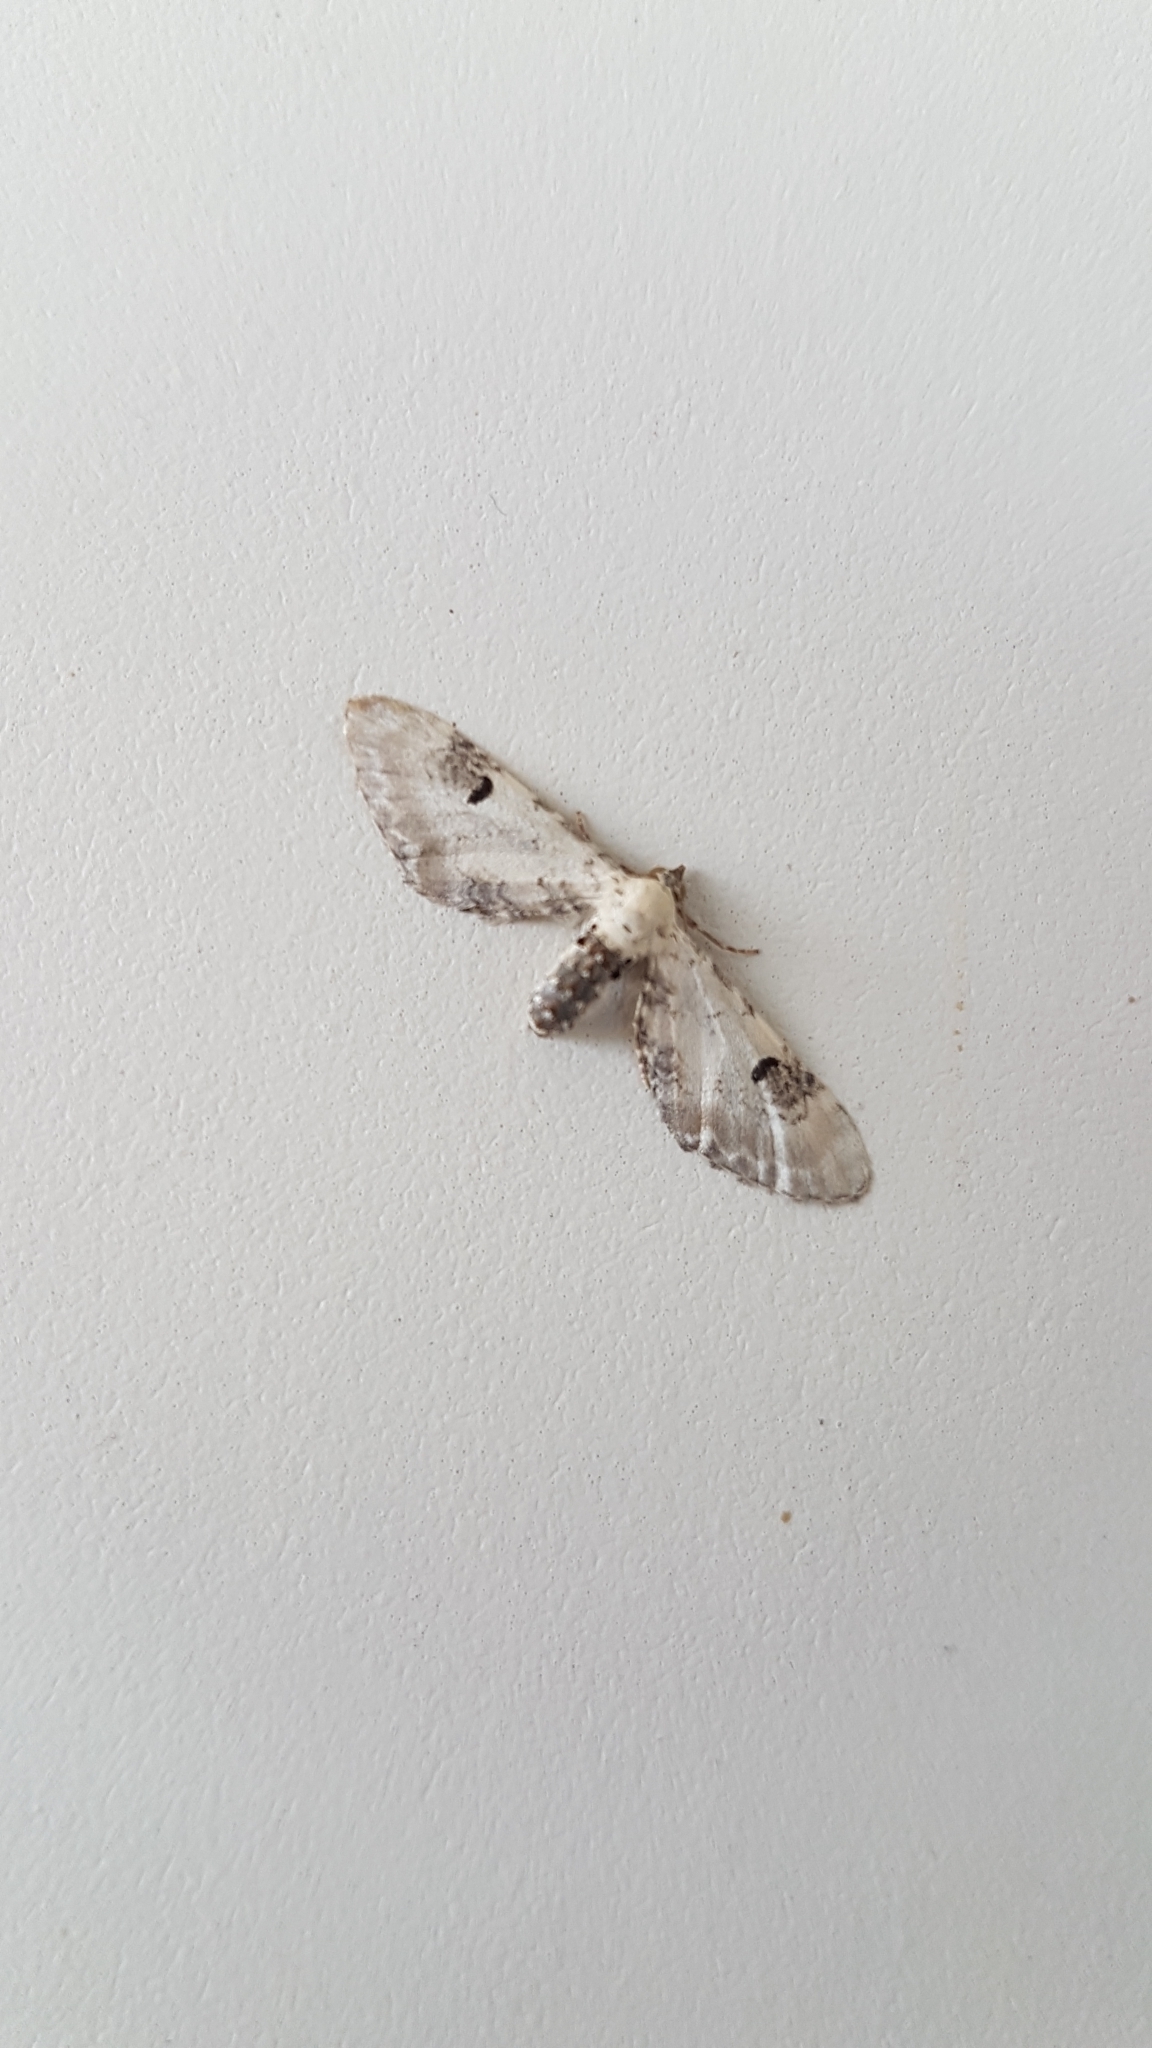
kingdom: Animalia
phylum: Arthropoda
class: Insecta
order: Lepidoptera
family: Geometridae
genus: Eupithecia
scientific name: Eupithecia centaureata
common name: Lime-speck pug
